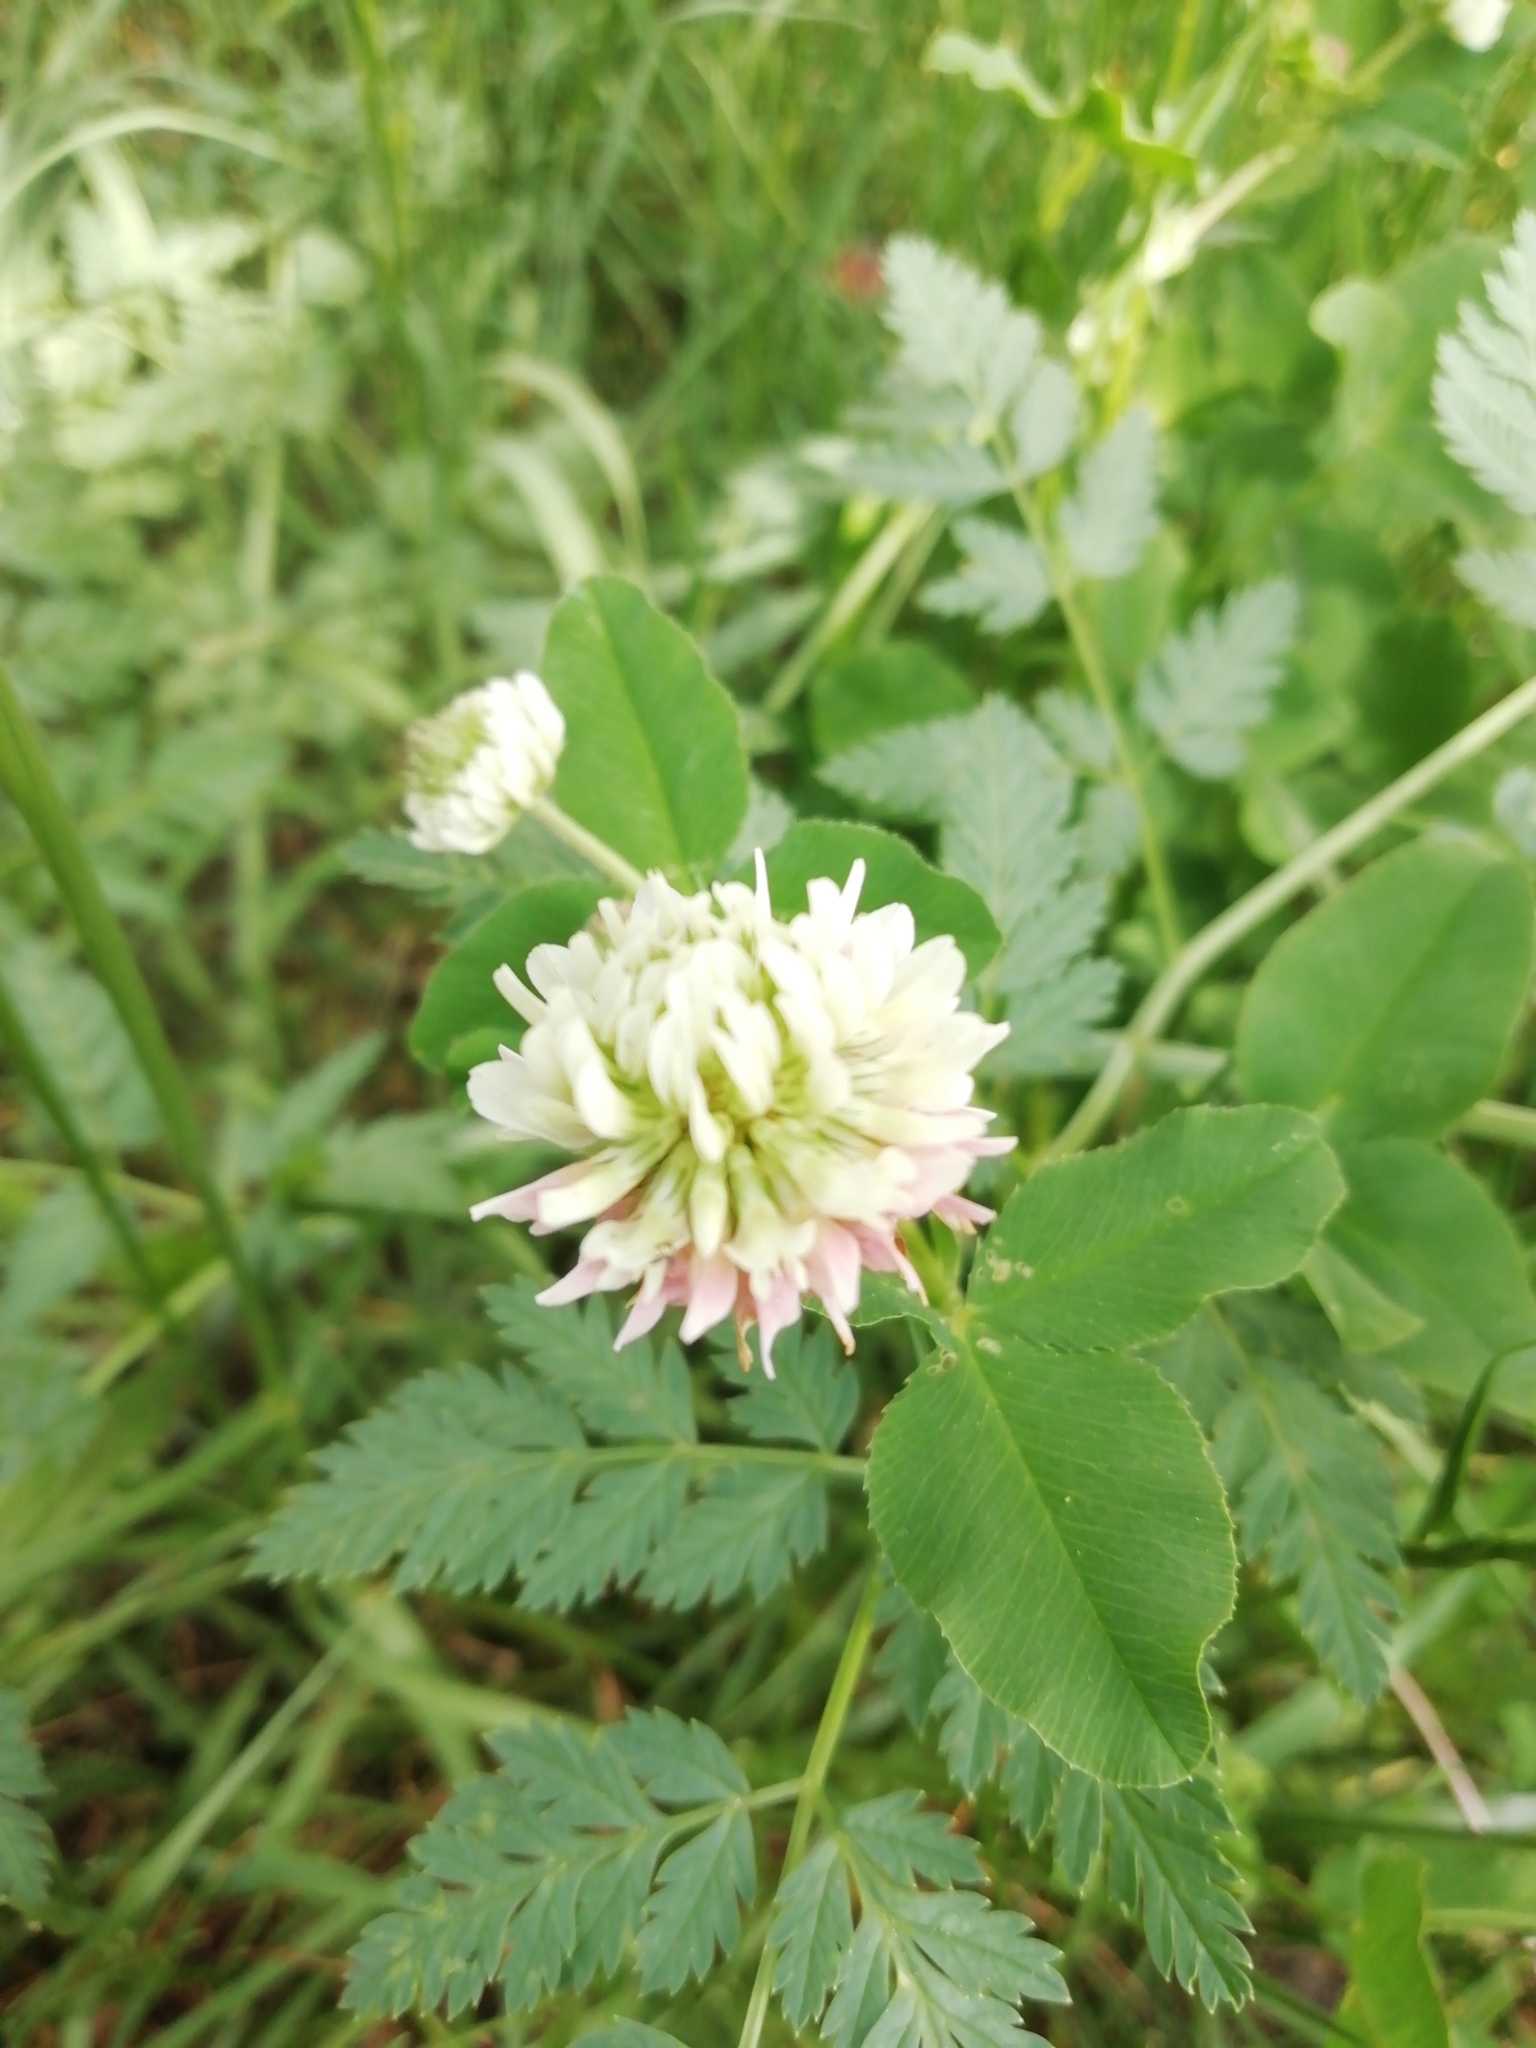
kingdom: Plantae
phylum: Tracheophyta
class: Magnoliopsida
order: Fabales
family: Fabaceae
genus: Trifolium
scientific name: Trifolium hybridum
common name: Alsike clover
